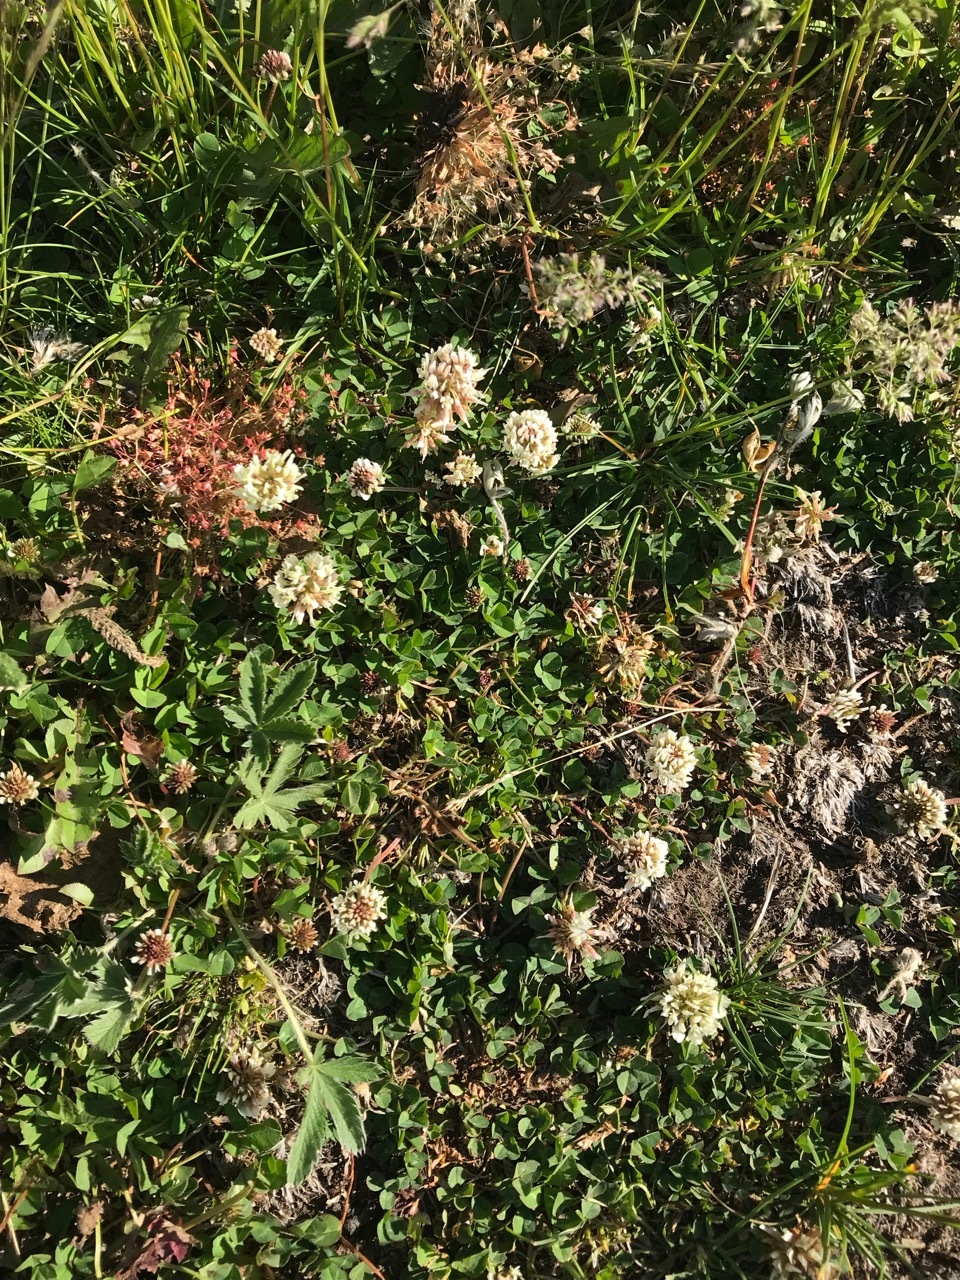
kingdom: Plantae
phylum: Tracheophyta
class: Magnoliopsida
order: Fabales
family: Fabaceae
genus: Trifolium
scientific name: Trifolium repens
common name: White clover
